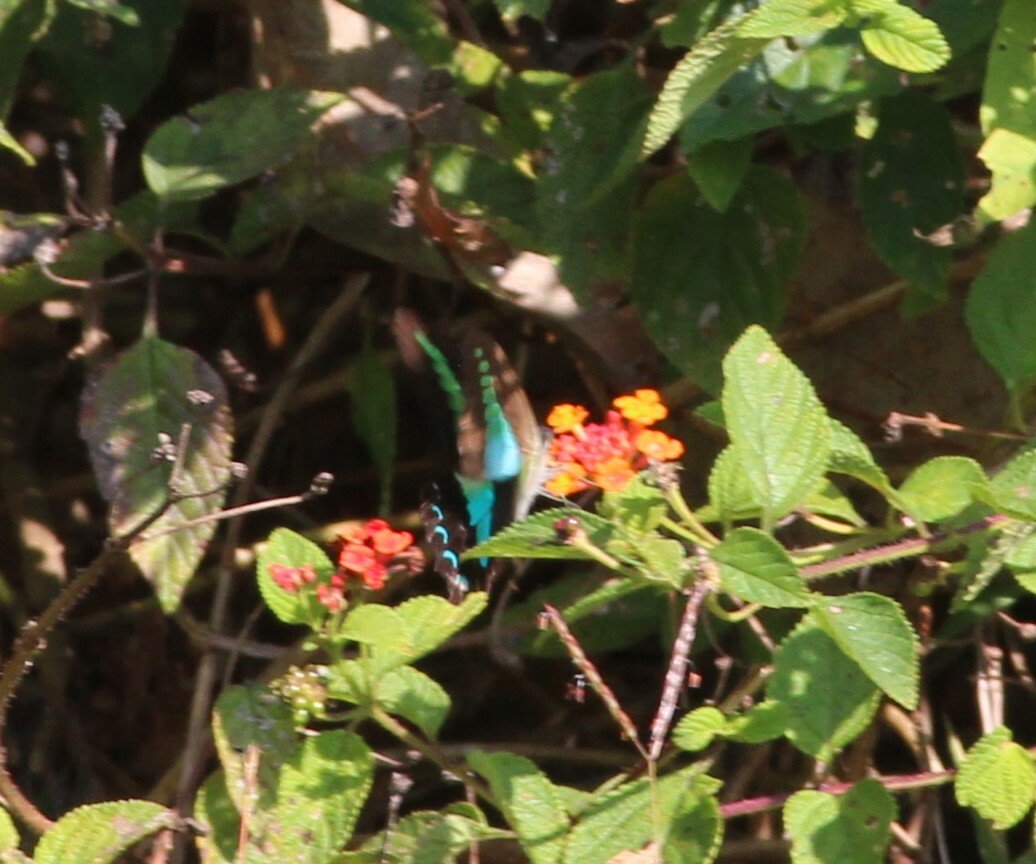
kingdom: Animalia
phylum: Arthropoda
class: Insecta
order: Lepidoptera
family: Papilionidae
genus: Graphium
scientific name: Graphium
